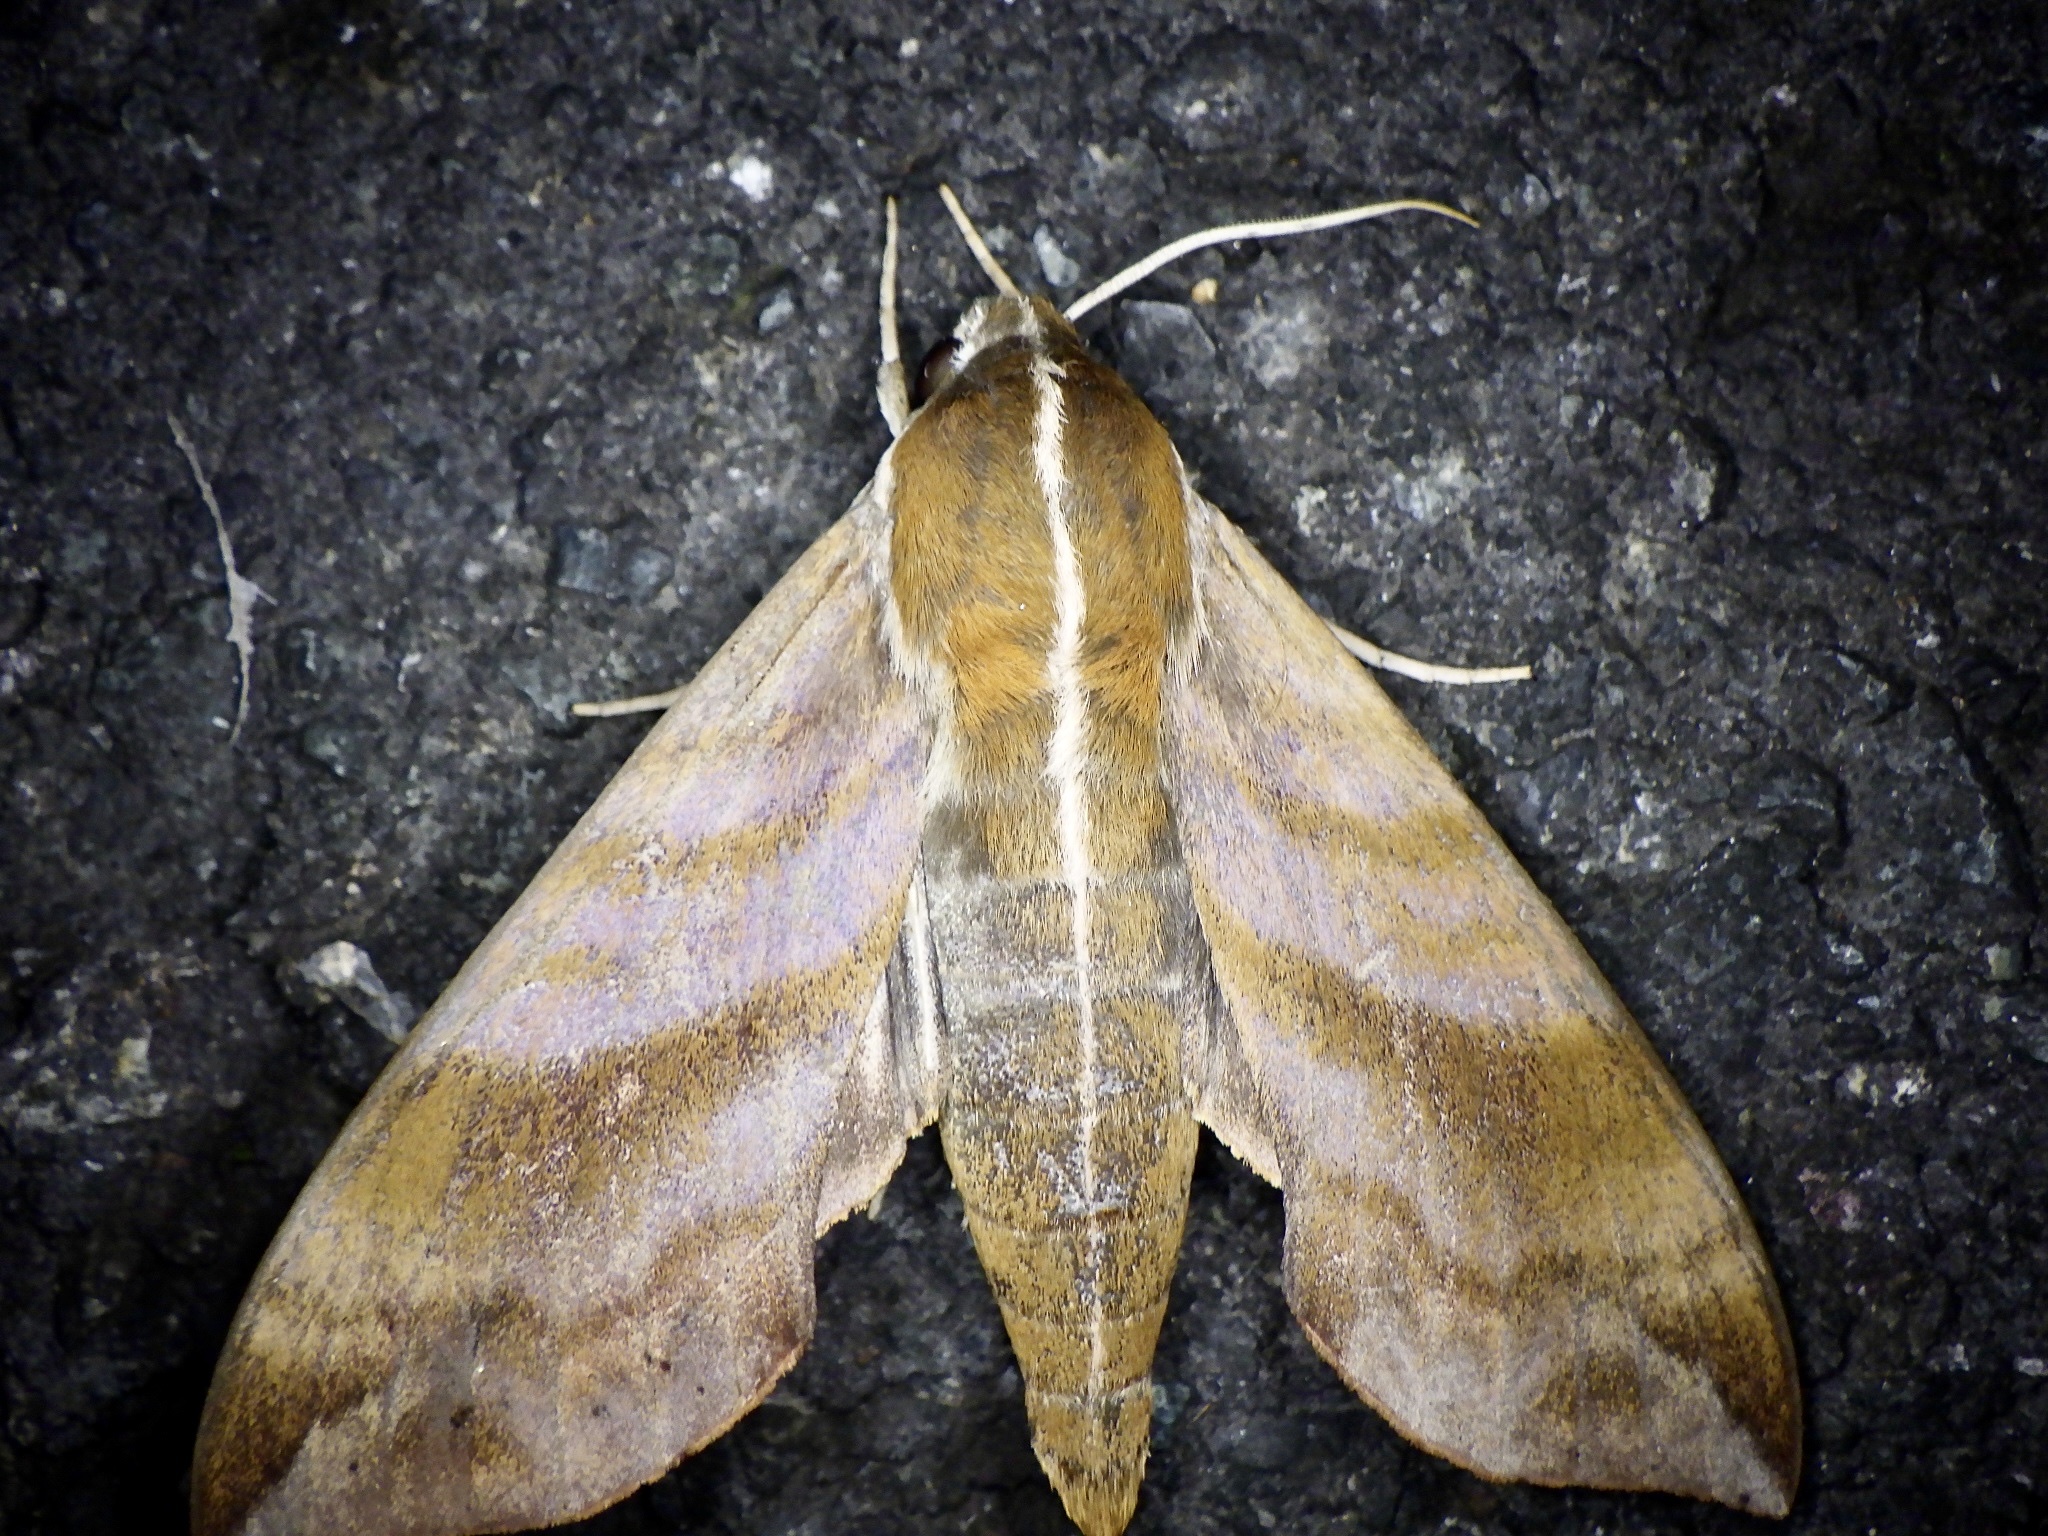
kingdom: Animalia
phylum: Arthropoda
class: Insecta
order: Lepidoptera
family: Sphingidae
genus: Ampelophaga
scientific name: Ampelophaga rubiginosa
